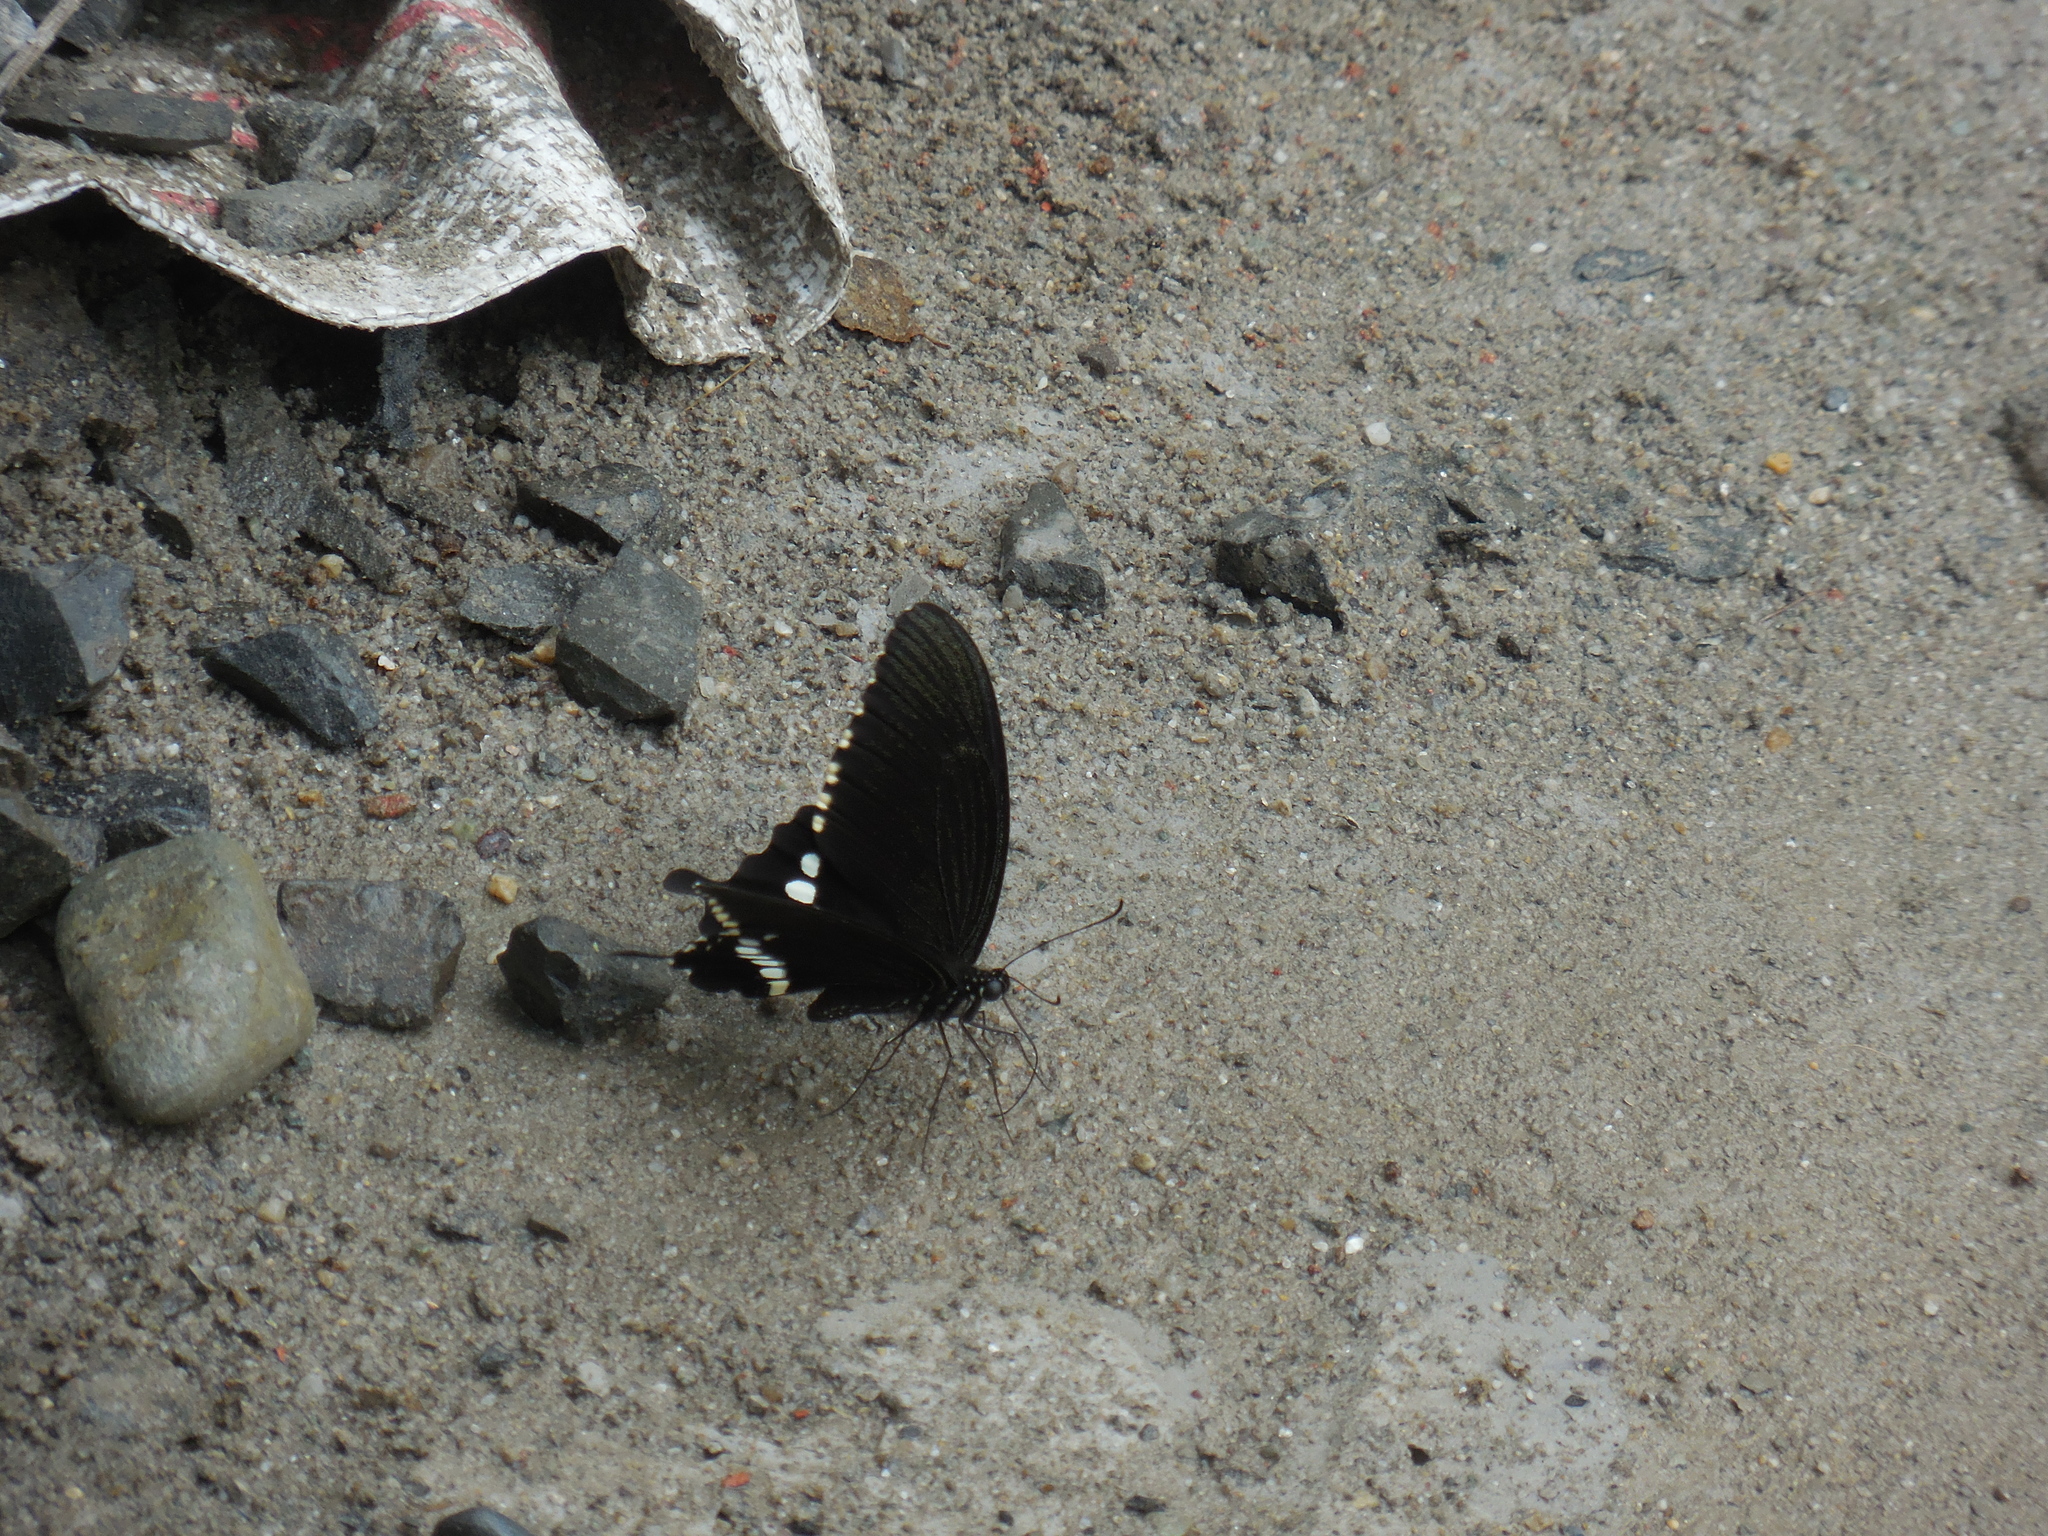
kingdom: Animalia
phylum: Arthropoda
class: Insecta
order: Lepidoptera
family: Papilionidae
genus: Papilio
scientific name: Papilio polytes
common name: Common mormon
